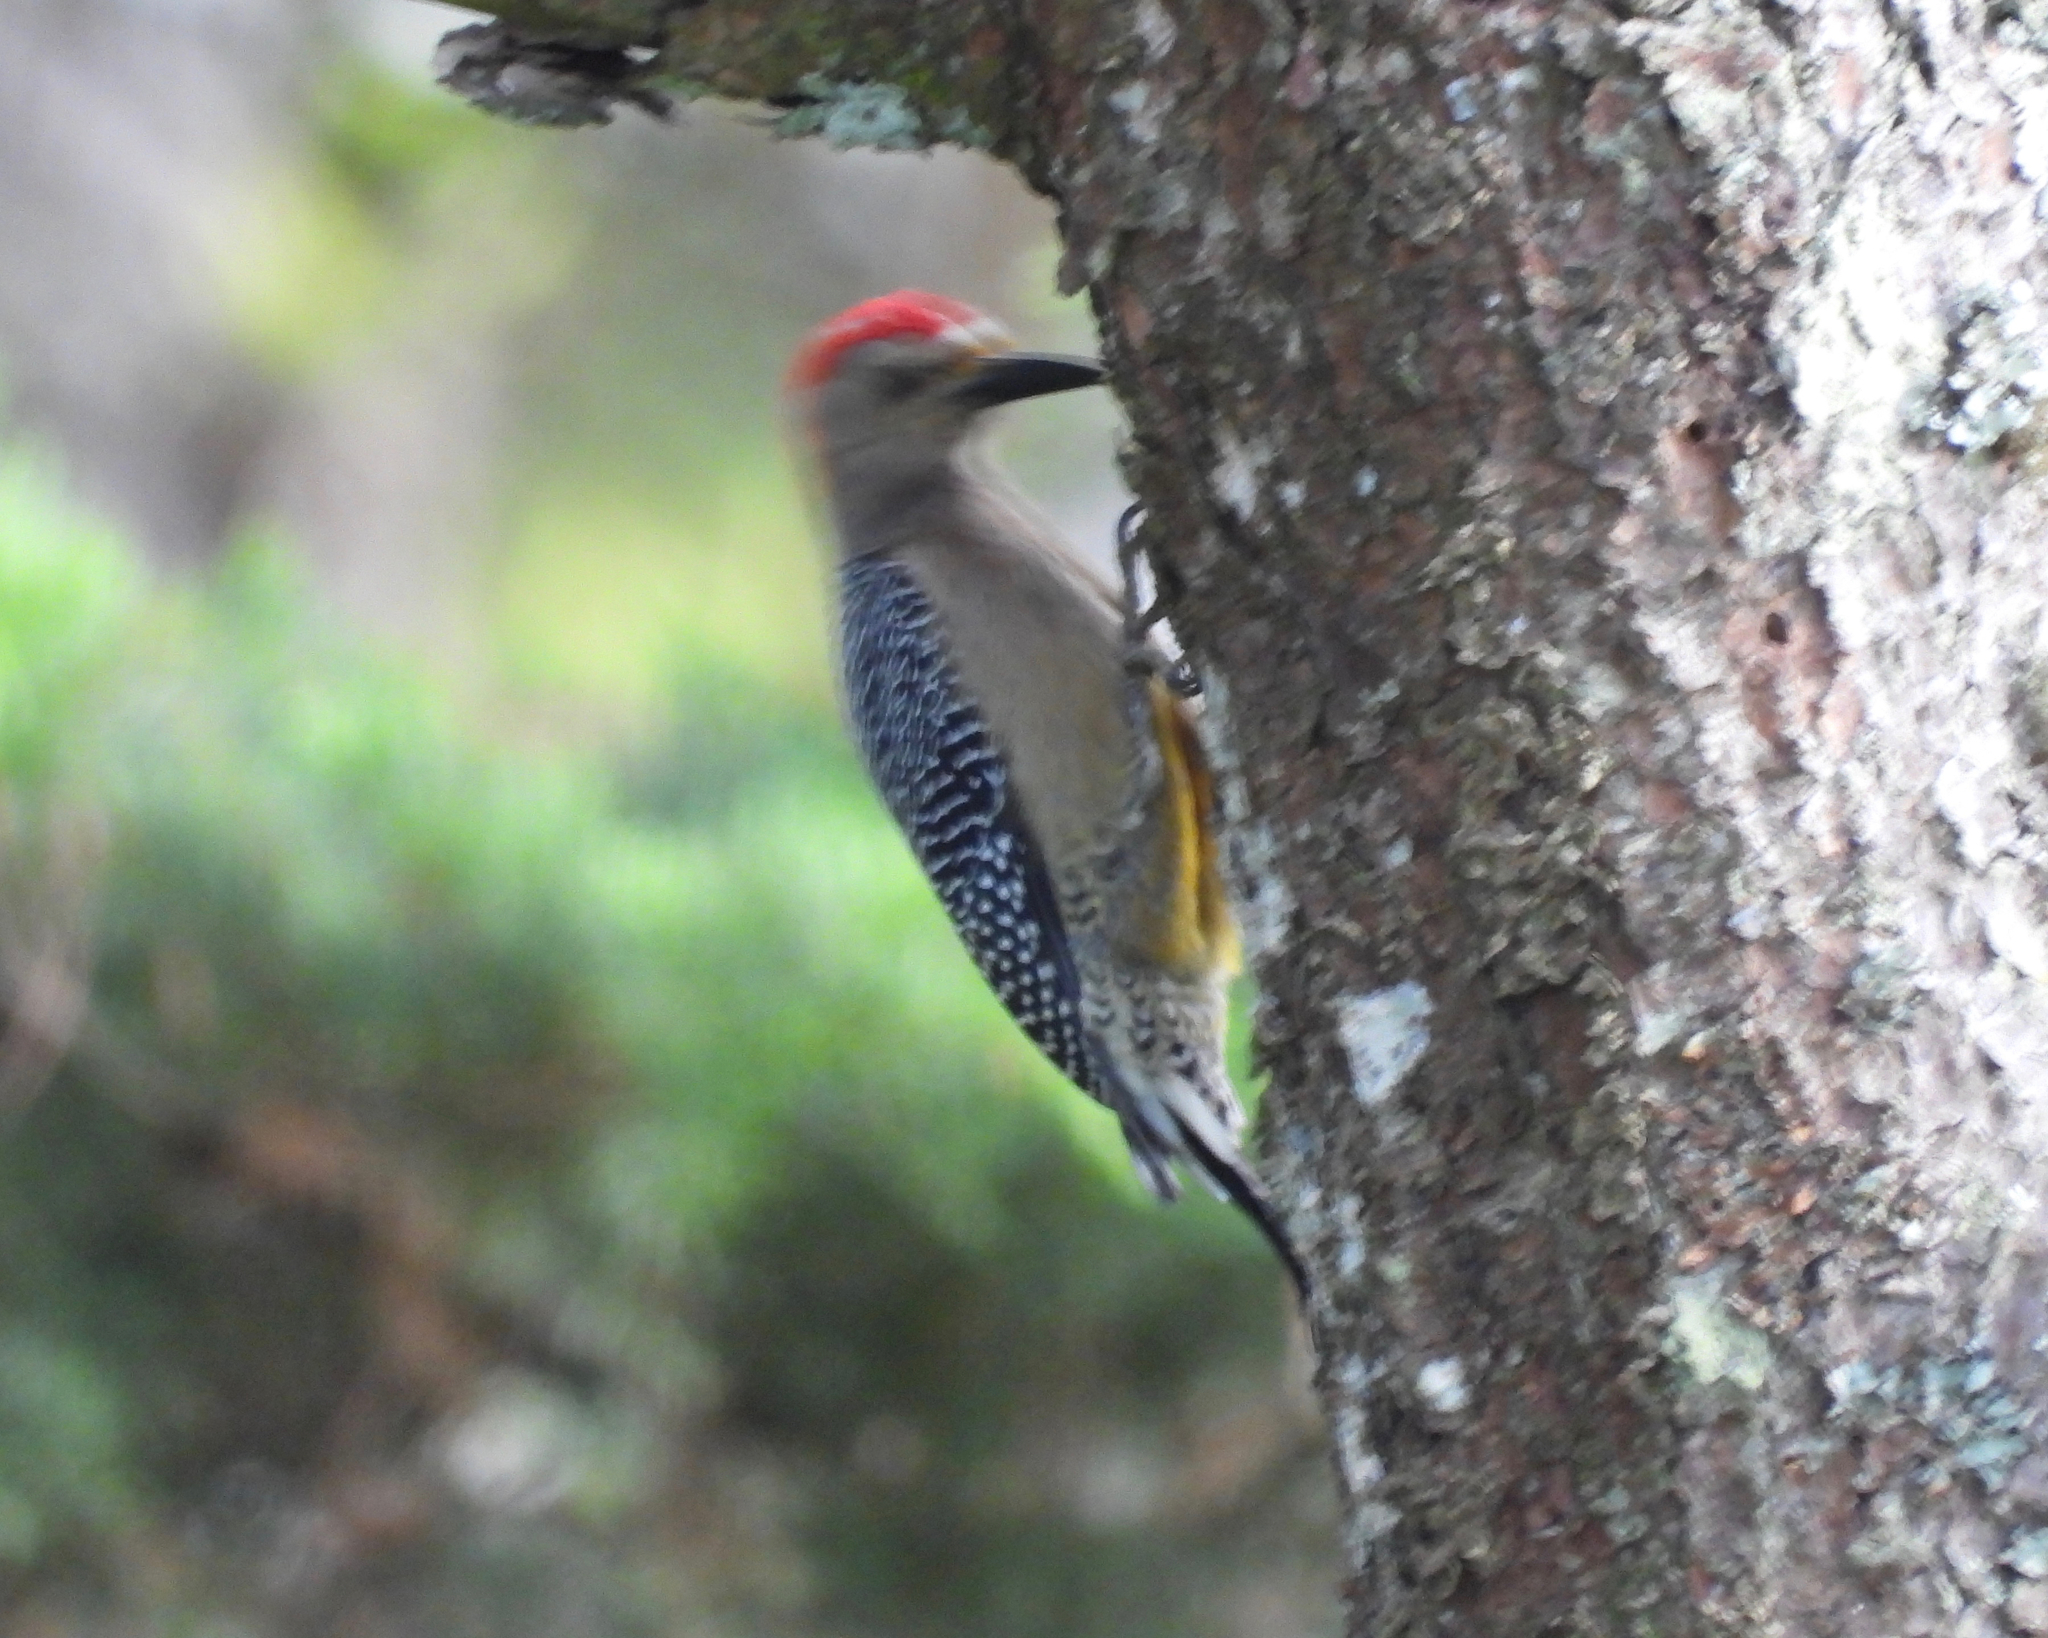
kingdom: Animalia
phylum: Chordata
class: Aves
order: Piciformes
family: Picidae
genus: Melanerpes
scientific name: Melanerpes aurifrons
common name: Golden-fronted woodpecker
